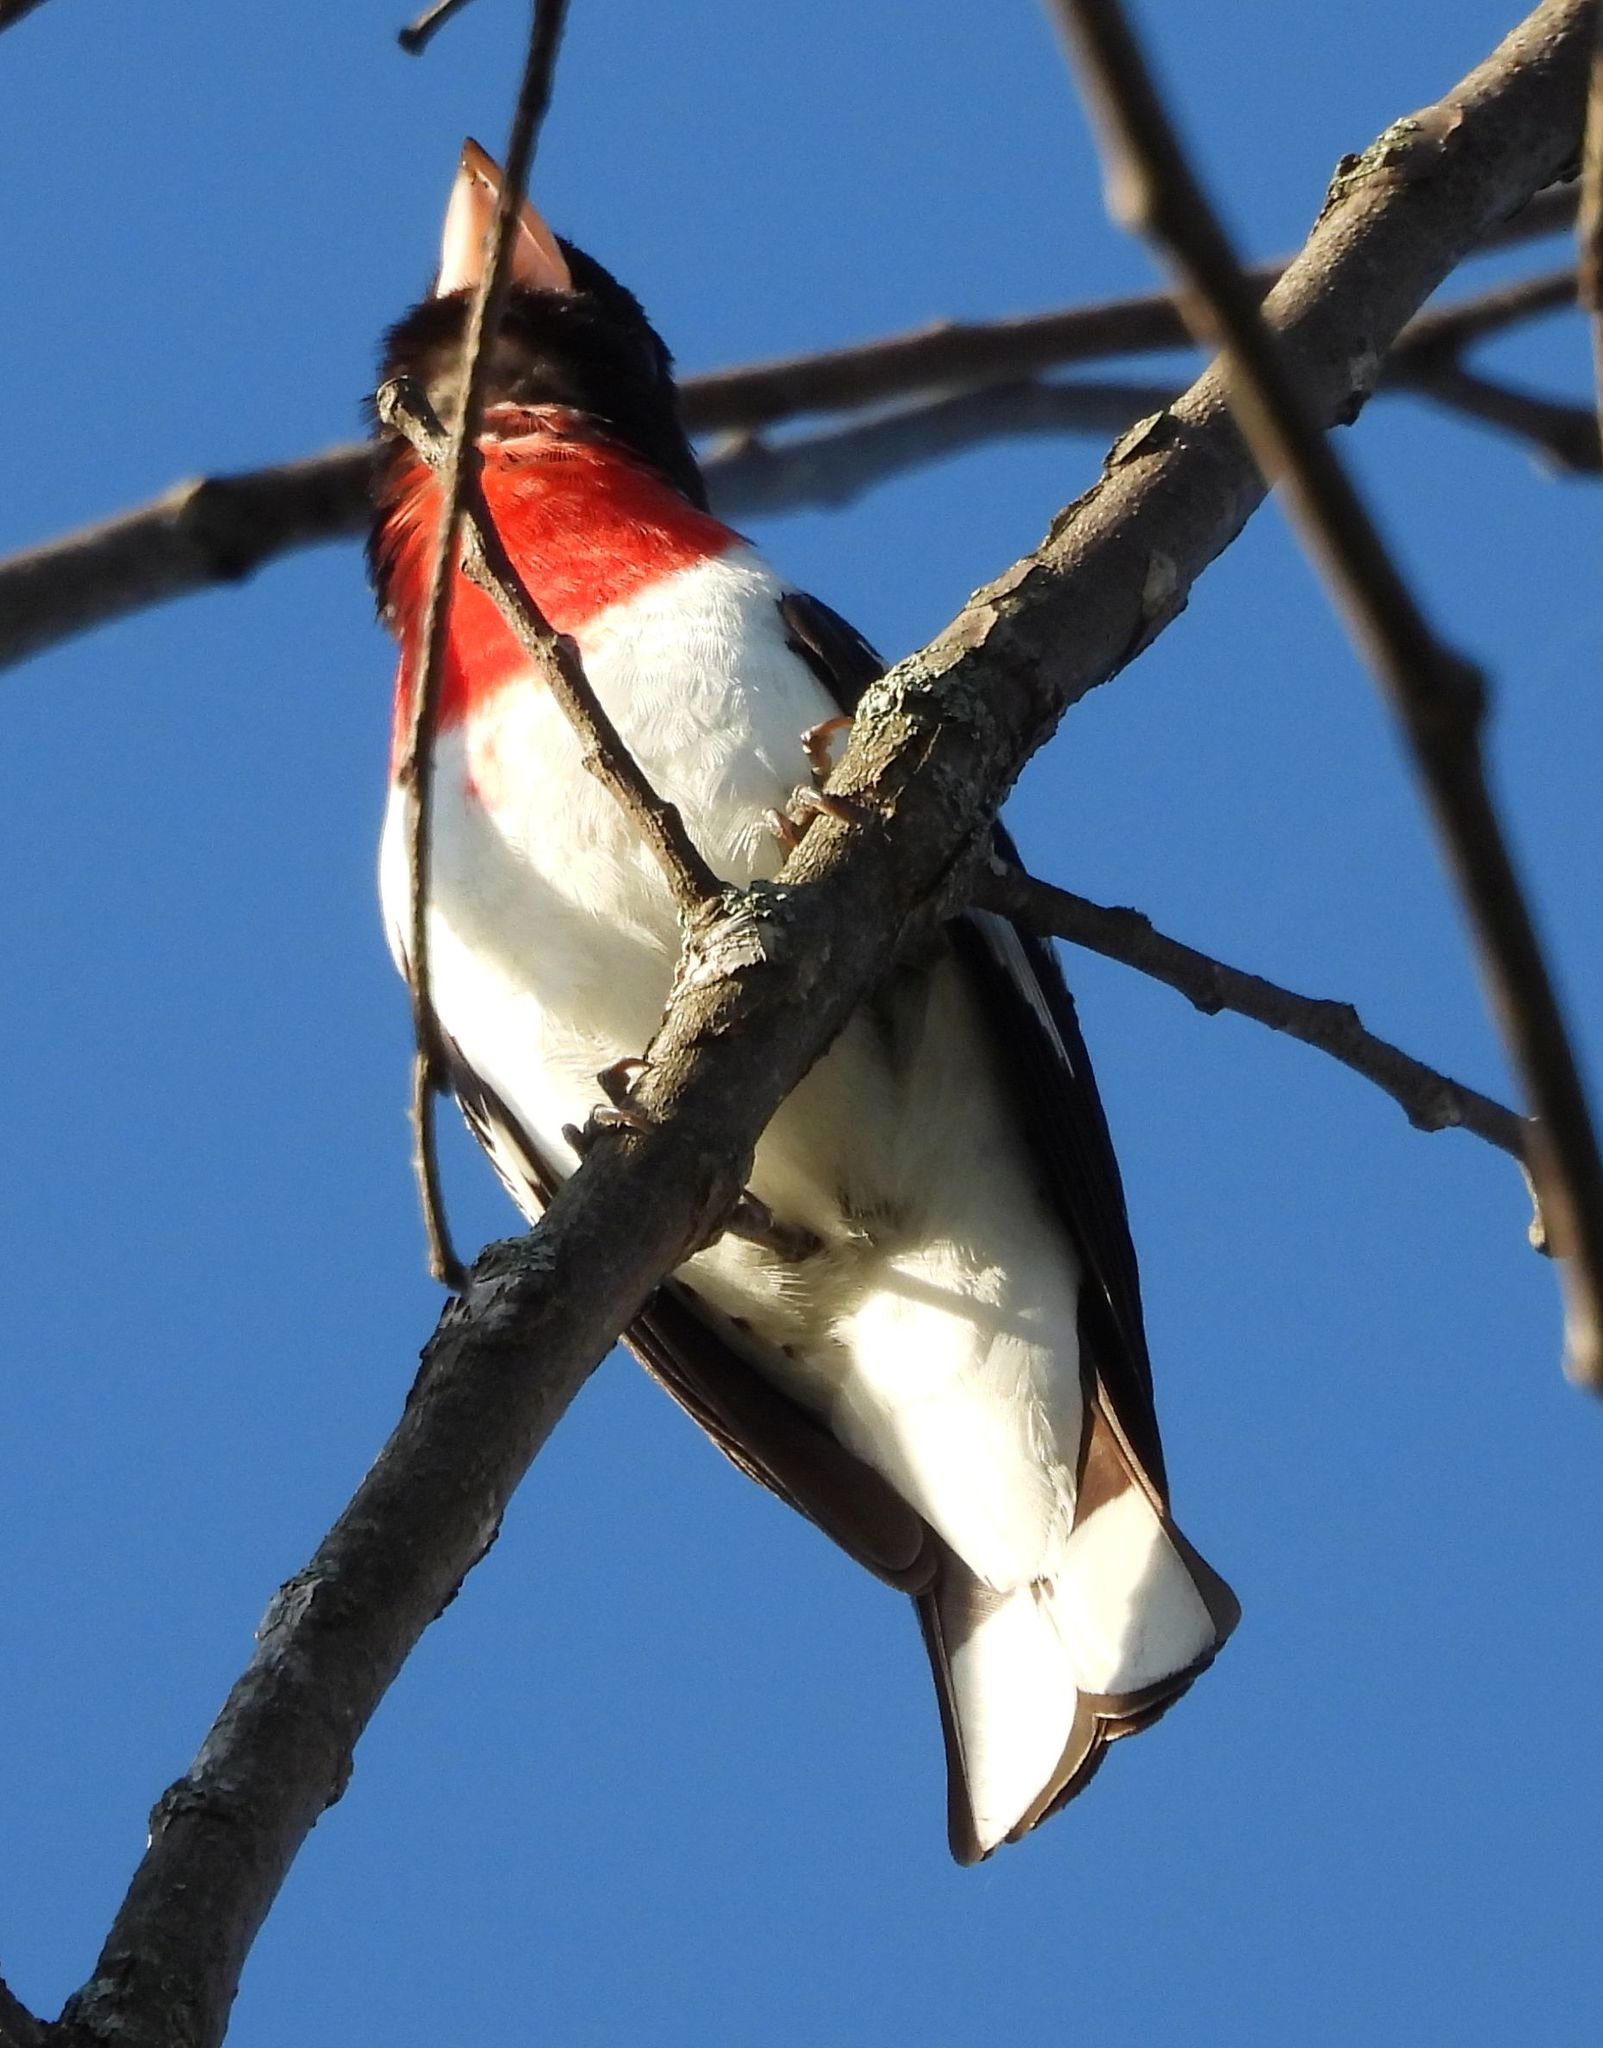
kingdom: Animalia
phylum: Chordata
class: Aves
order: Passeriformes
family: Cardinalidae
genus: Pheucticus
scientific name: Pheucticus ludovicianus
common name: Rose-breasted grosbeak
